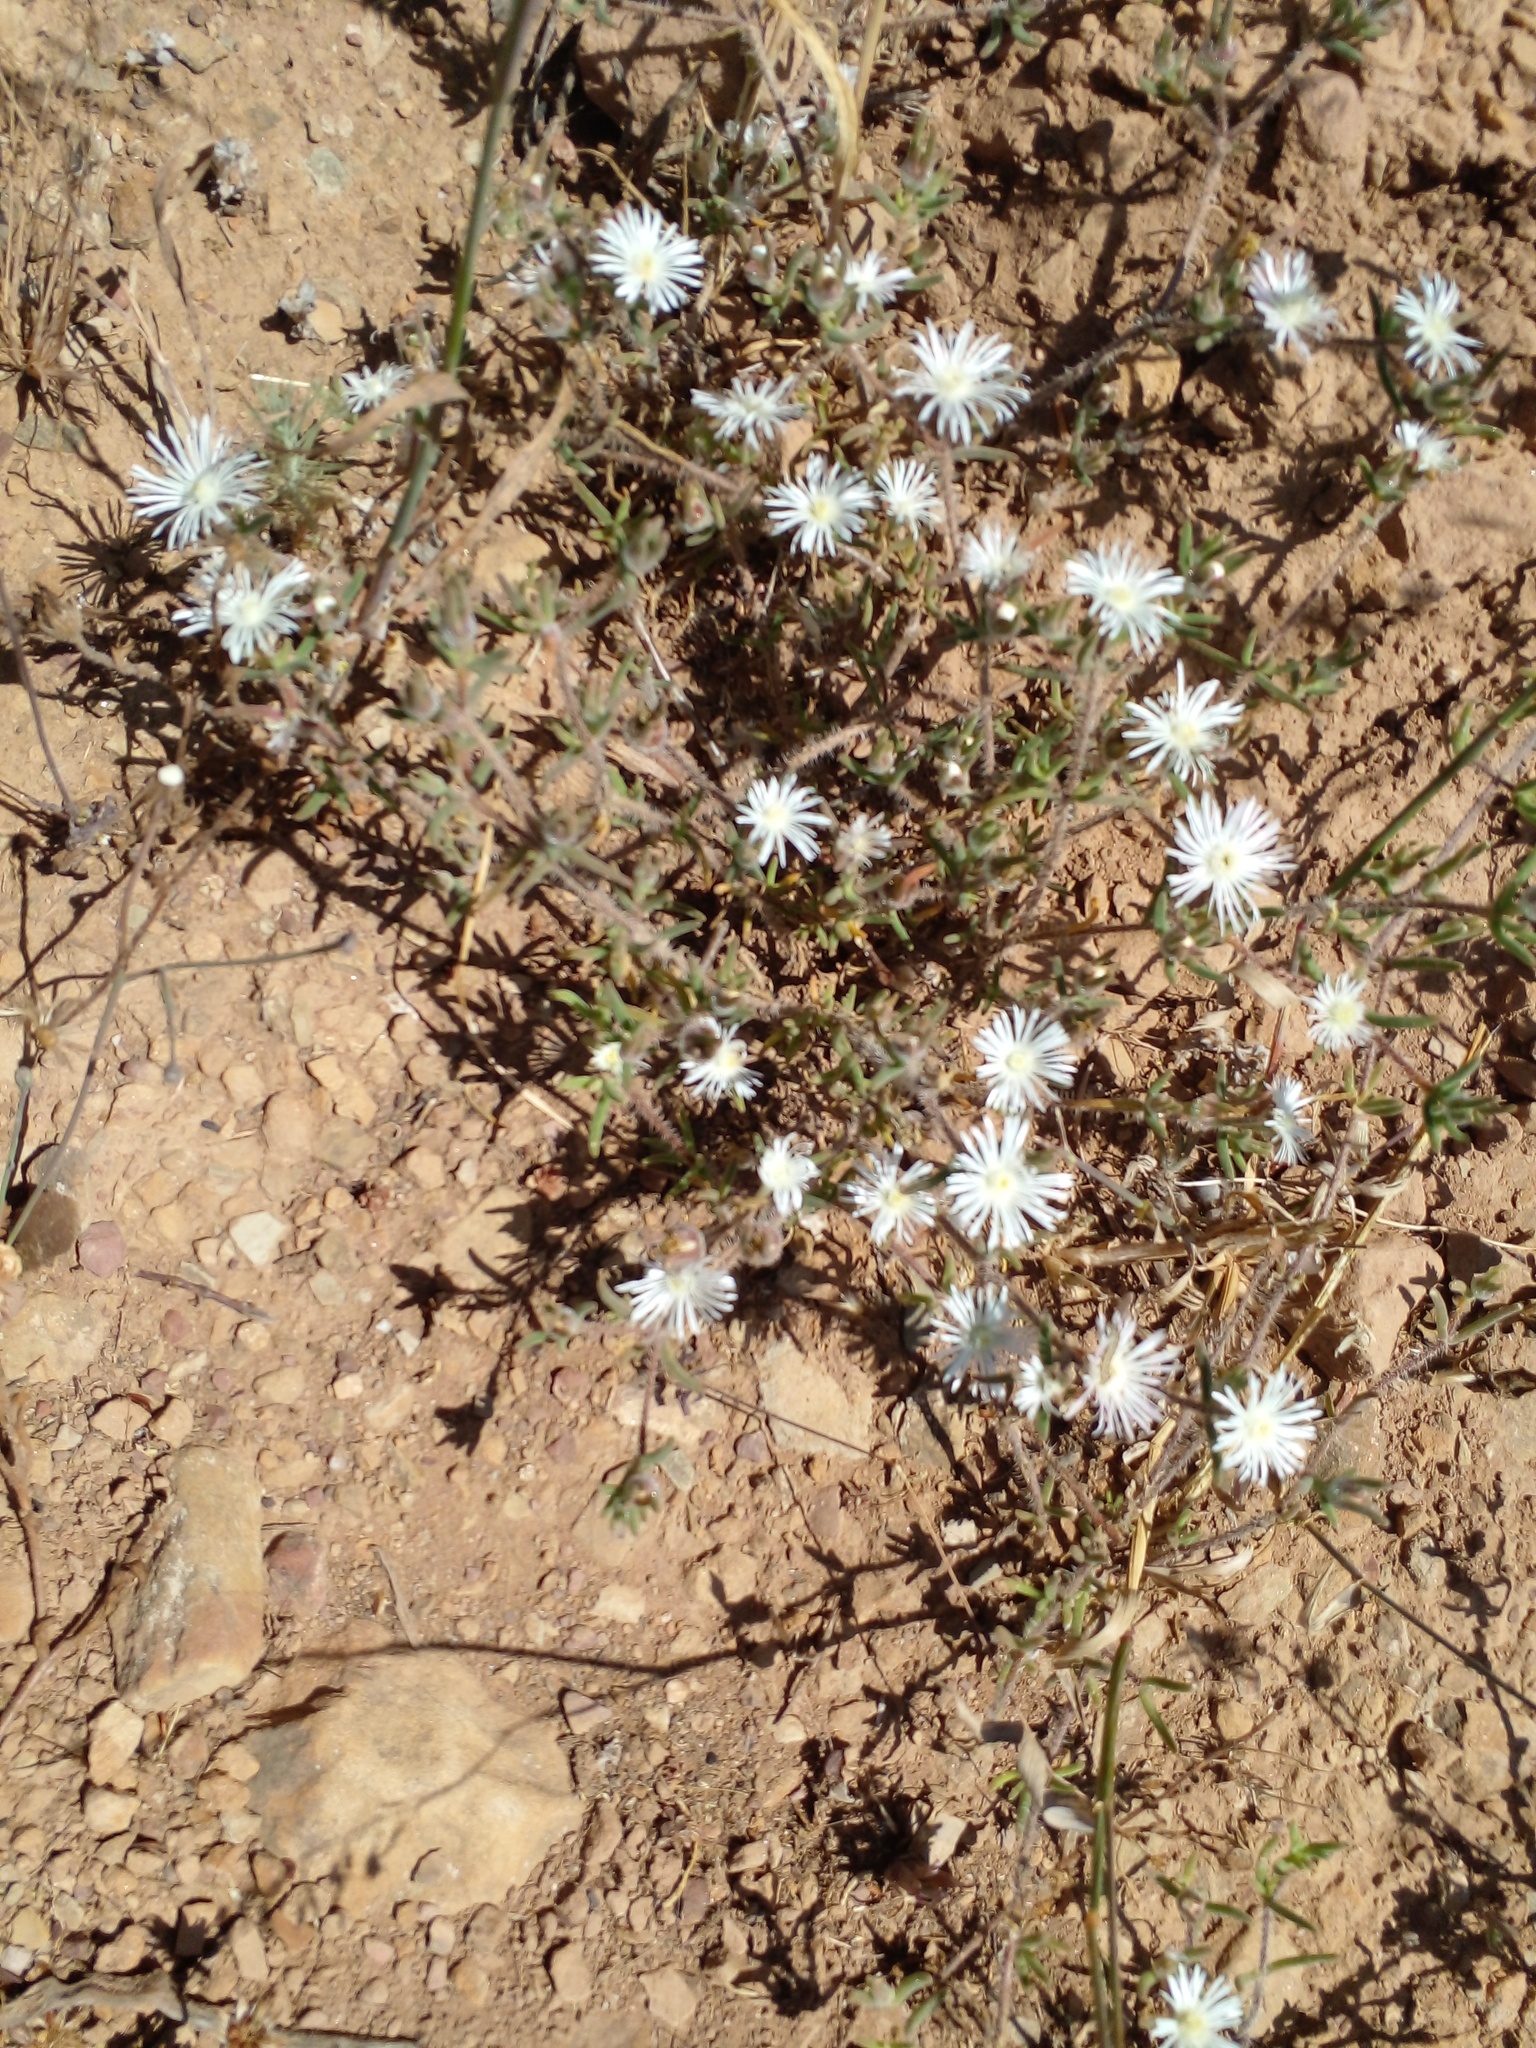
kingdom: Plantae
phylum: Tracheophyta
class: Magnoliopsida
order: Caryophyllales
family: Aizoaceae
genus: Drosanthemum
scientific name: Drosanthemum calycinum
